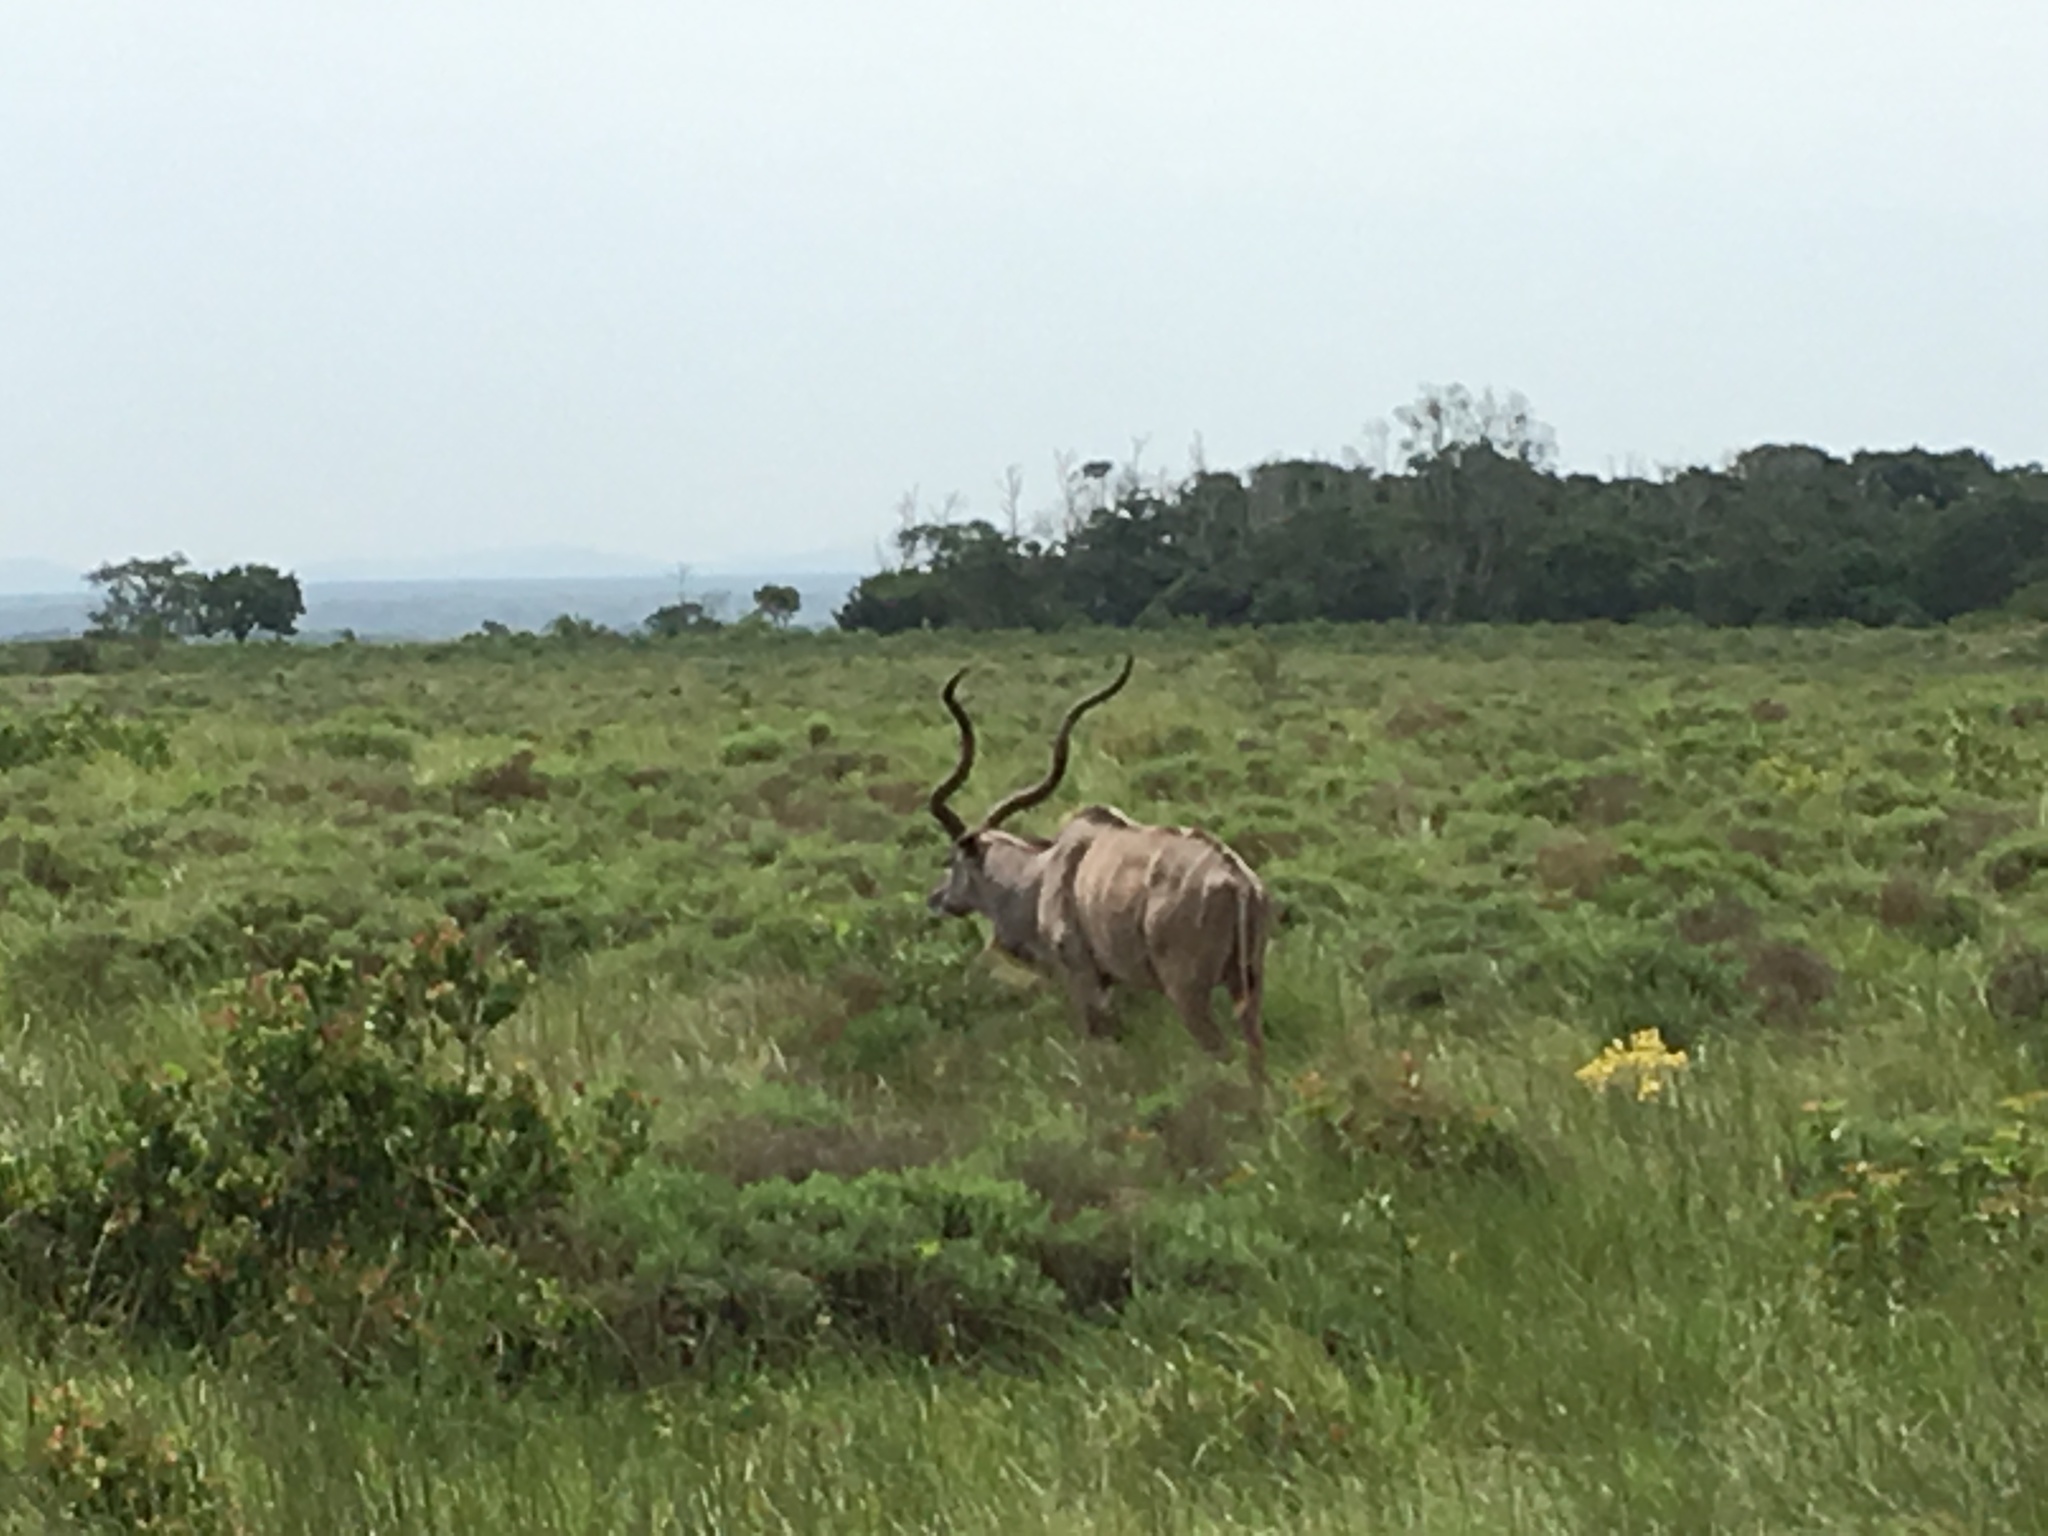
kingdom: Animalia
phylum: Chordata
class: Mammalia
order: Artiodactyla
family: Bovidae
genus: Tragelaphus
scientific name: Tragelaphus strepsiceros
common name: Greater kudu
